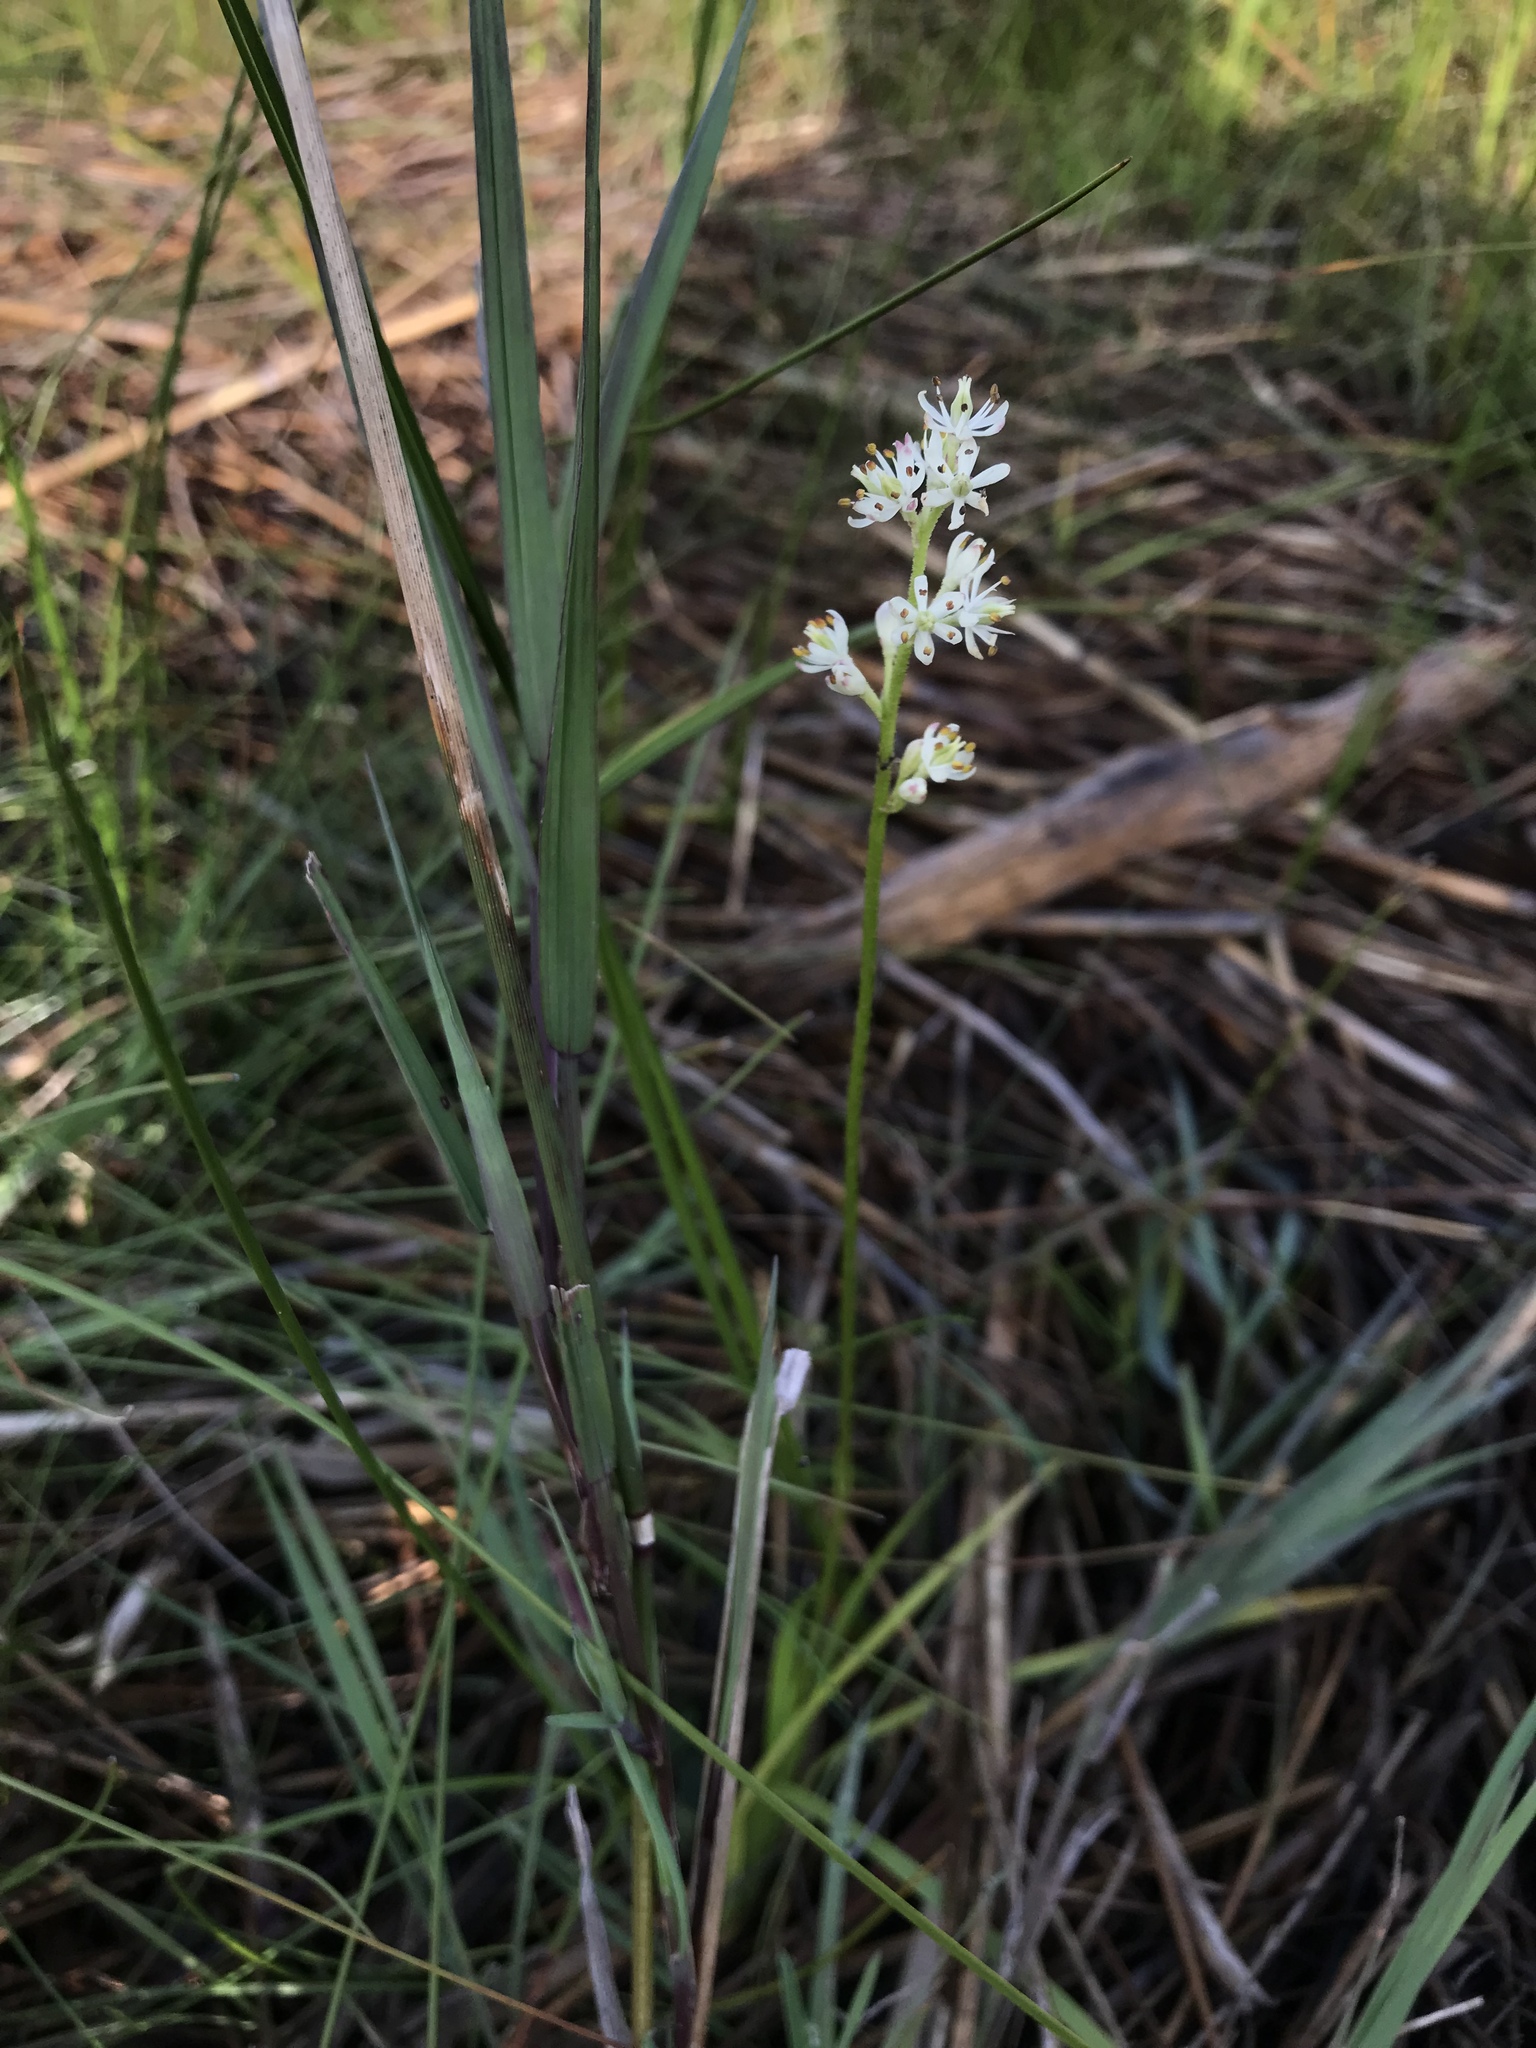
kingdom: Plantae
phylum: Tracheophyta
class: Liliopsida
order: Alismatales
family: Tofieldiaceae
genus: Triantha
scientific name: Triantha glutinosa
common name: Glutinous tofieldia
